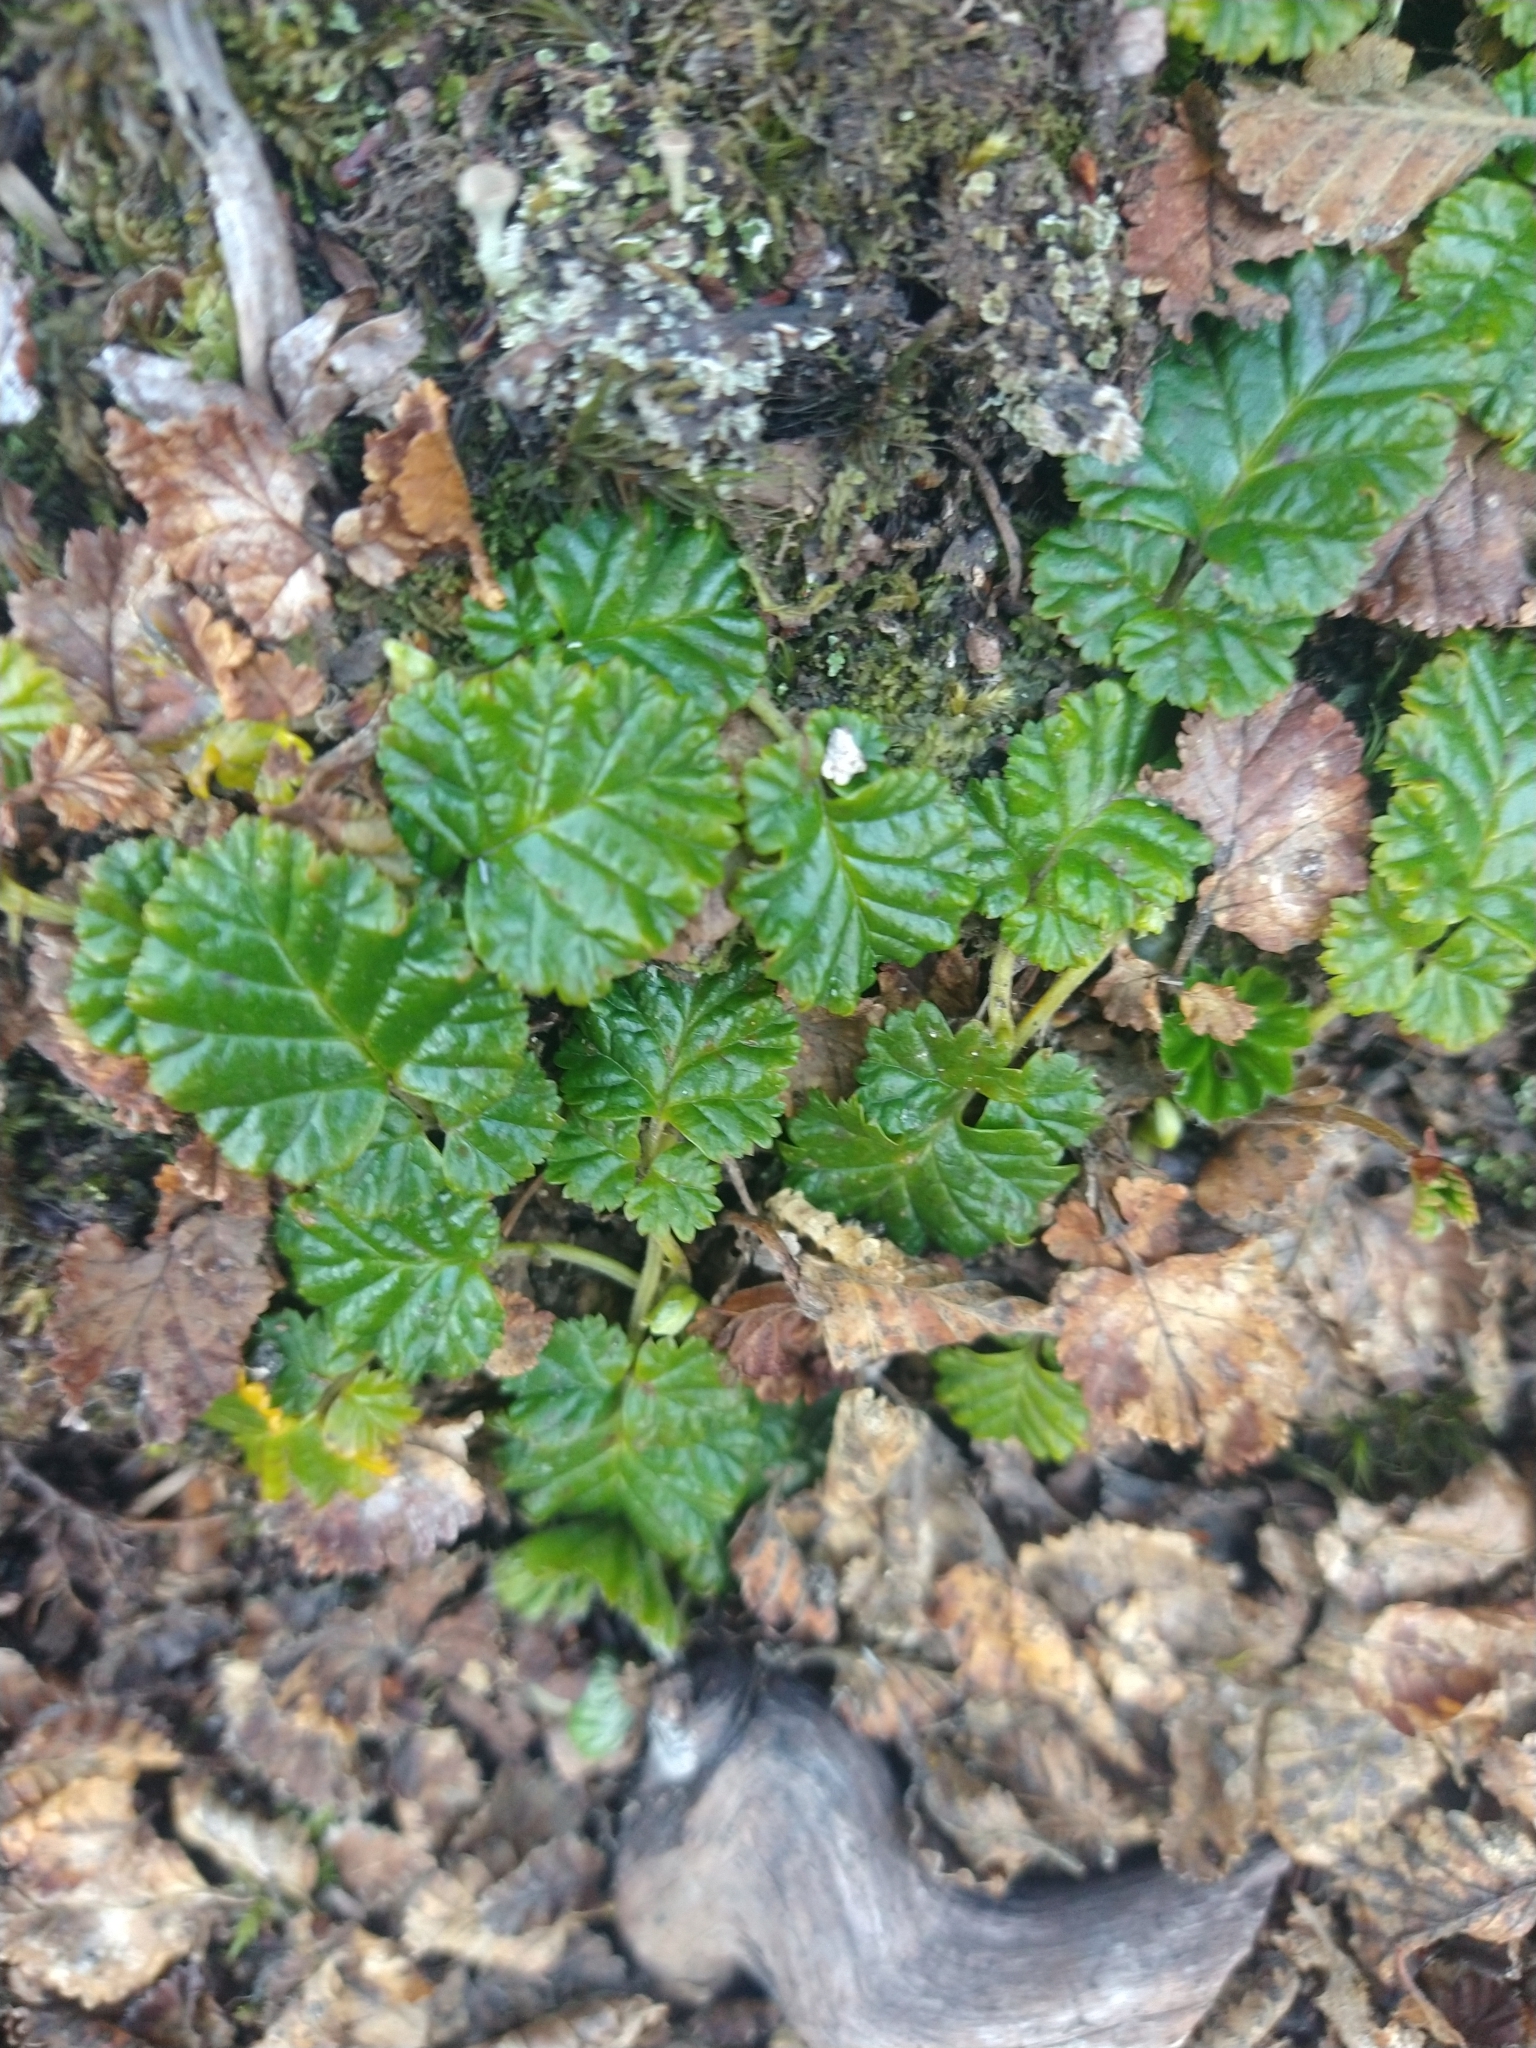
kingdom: Plantae
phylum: Tracheophyta
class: Magnoliopsida
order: Rosales
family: Rosaceae
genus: Rubus
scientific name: Rubus geoides
